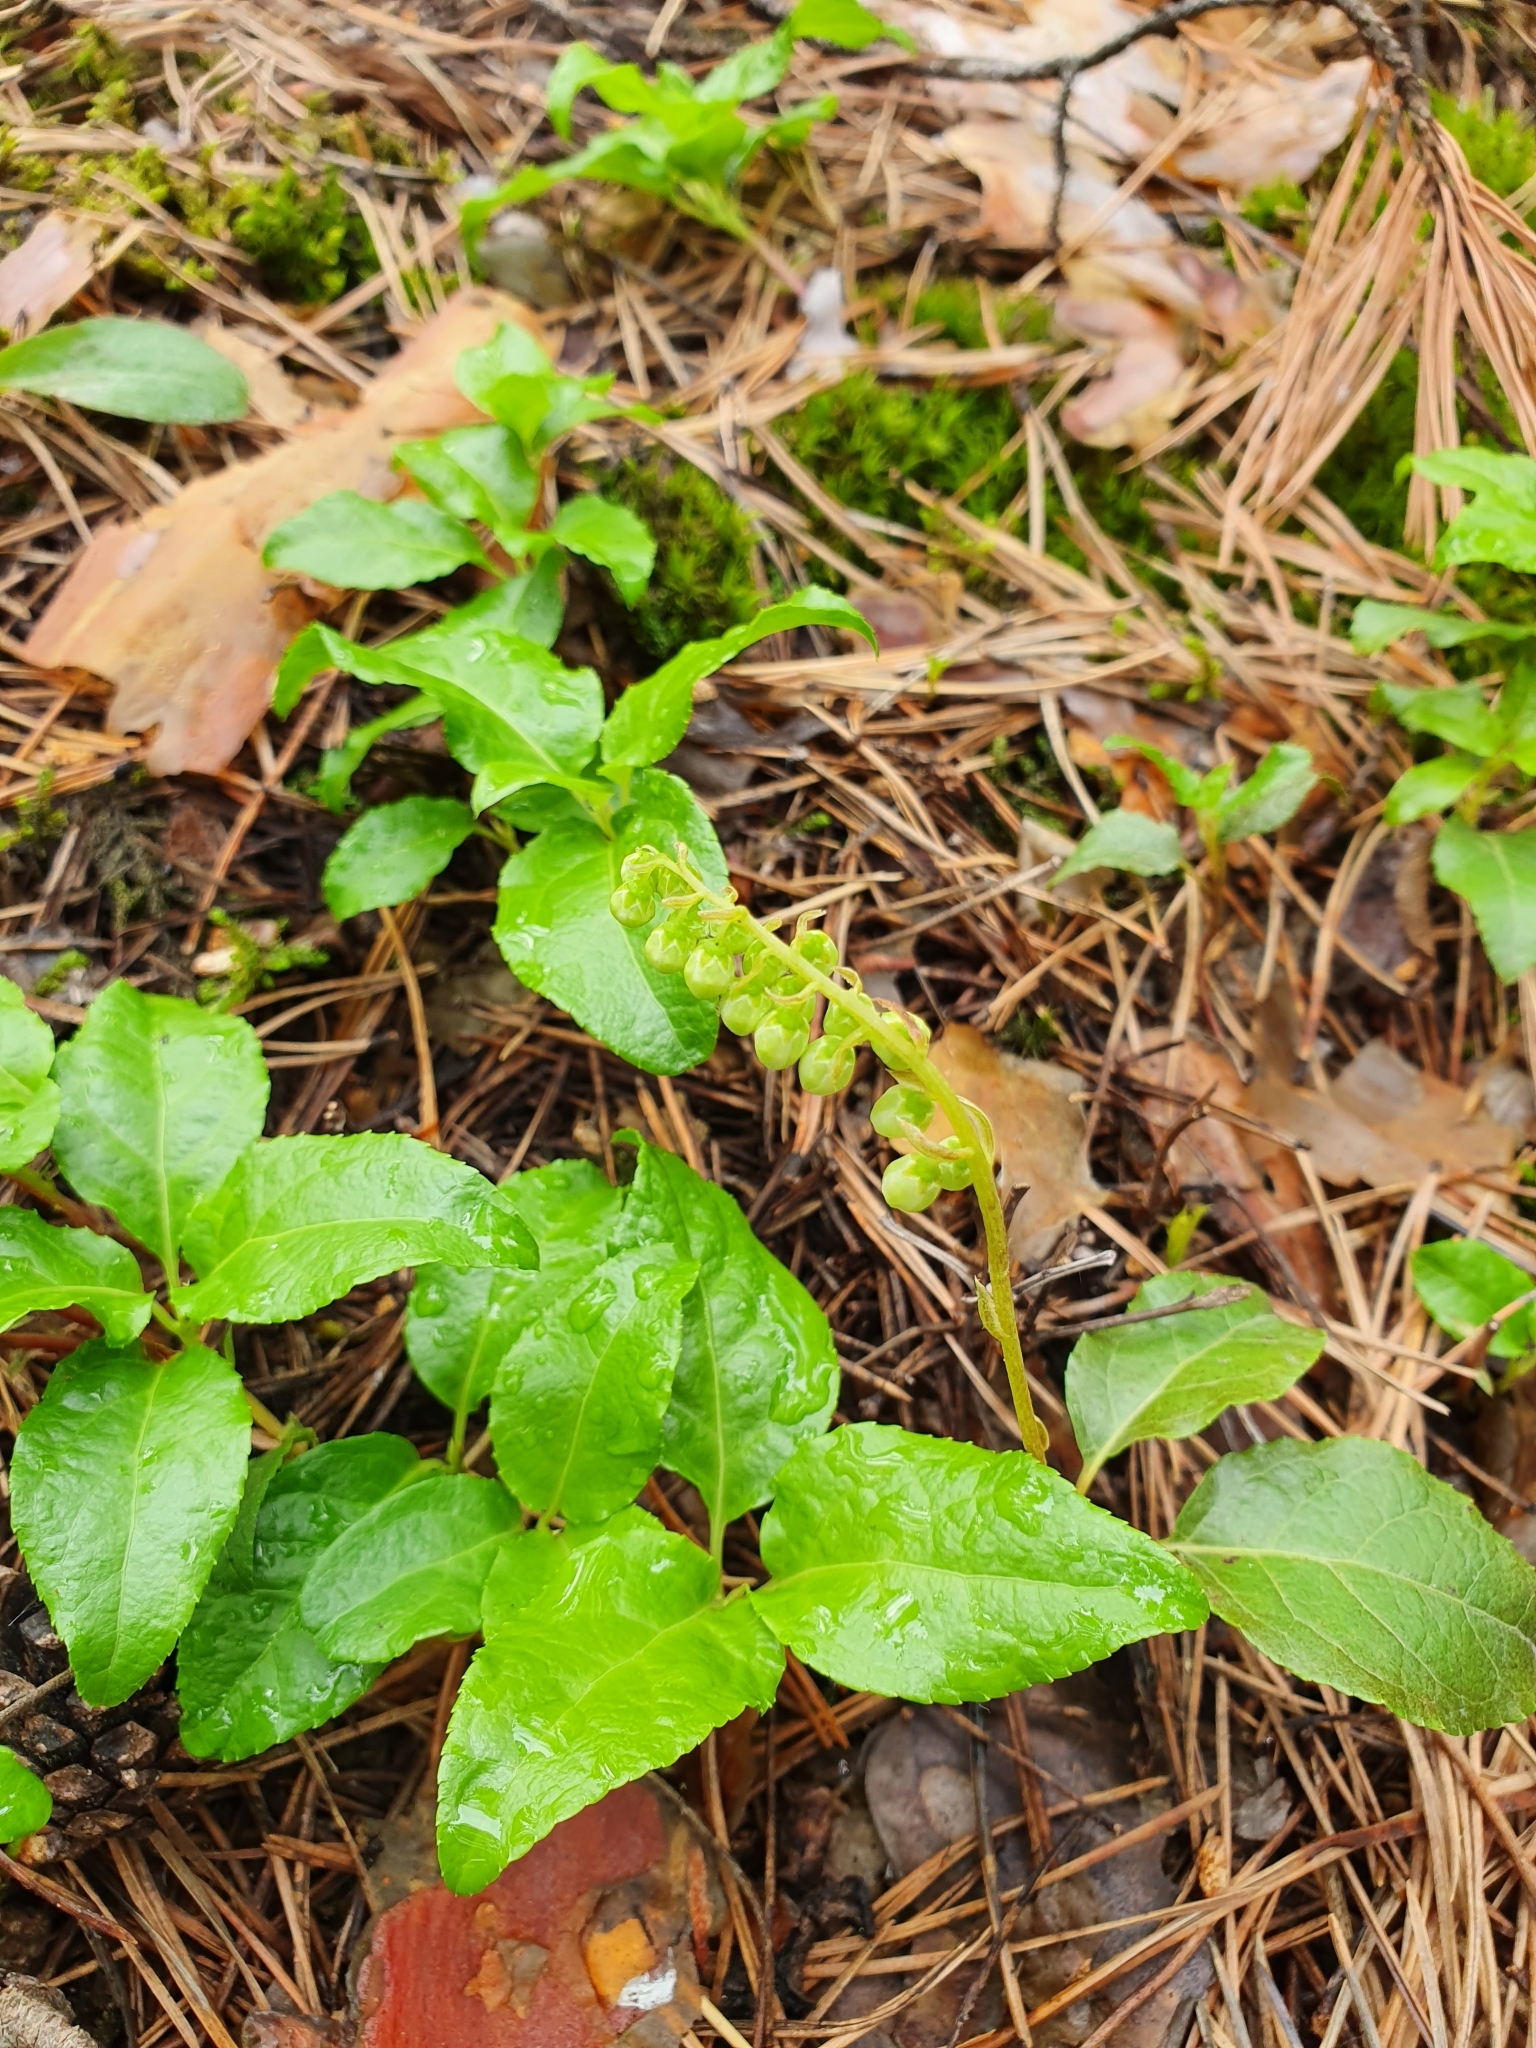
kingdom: Plantae
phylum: Tracheophyta
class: Magnoliopsida
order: Ericales
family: Ericaceae
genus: Orthilia
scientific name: Orthilia secunda
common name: One-sided orthilia
